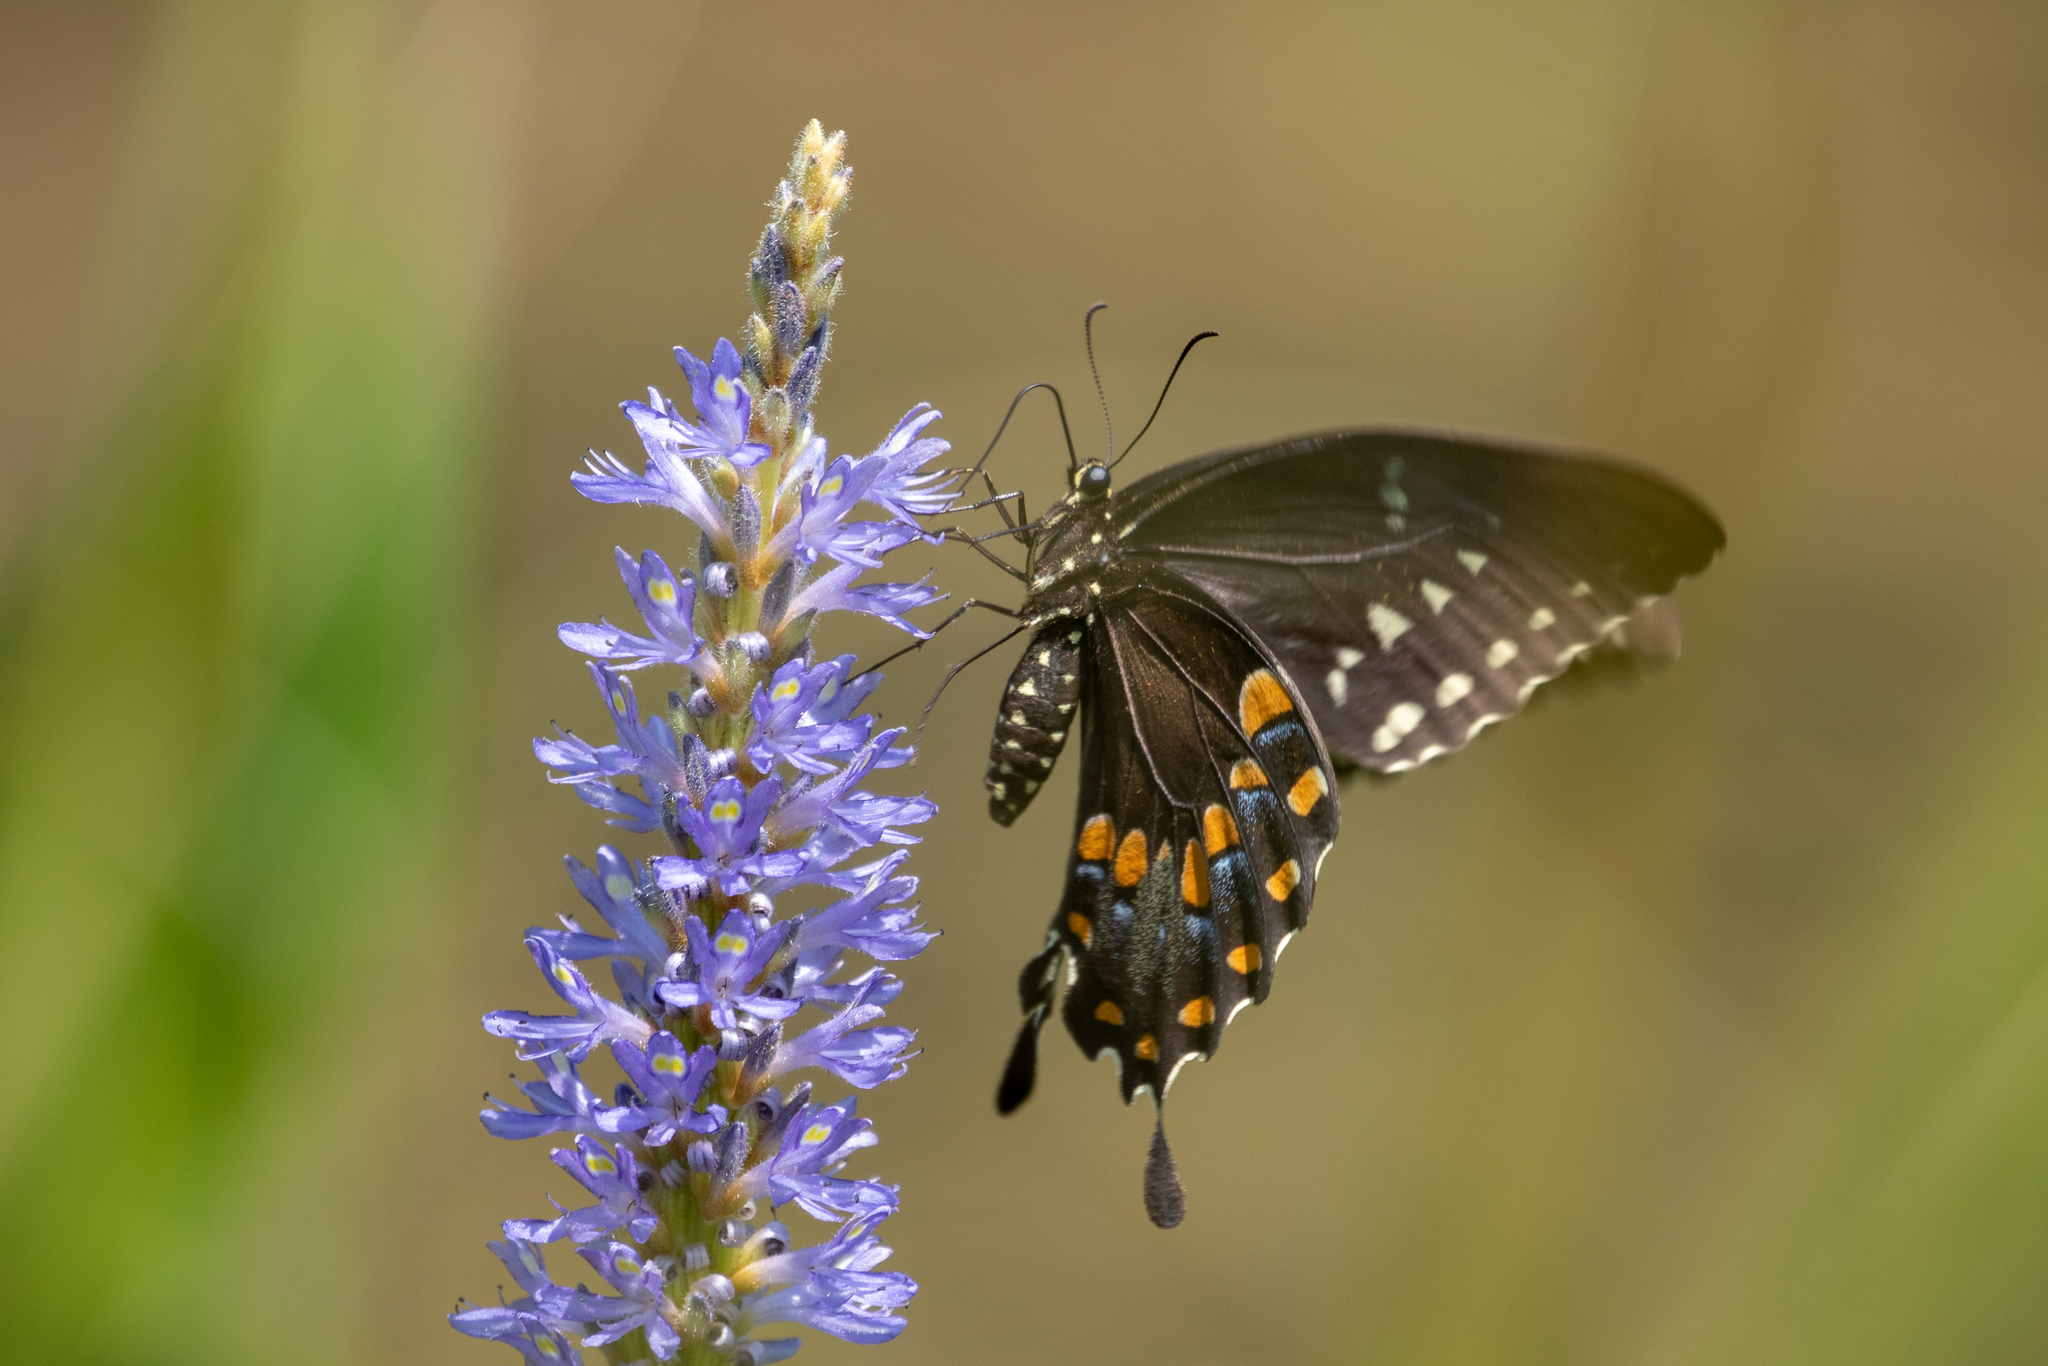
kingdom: Animalia
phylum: Arthropoda
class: Insecta
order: Lepidoptera
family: Papilionidae
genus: Papilio
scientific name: Papilio troilus
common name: Spicebush swallowtail
